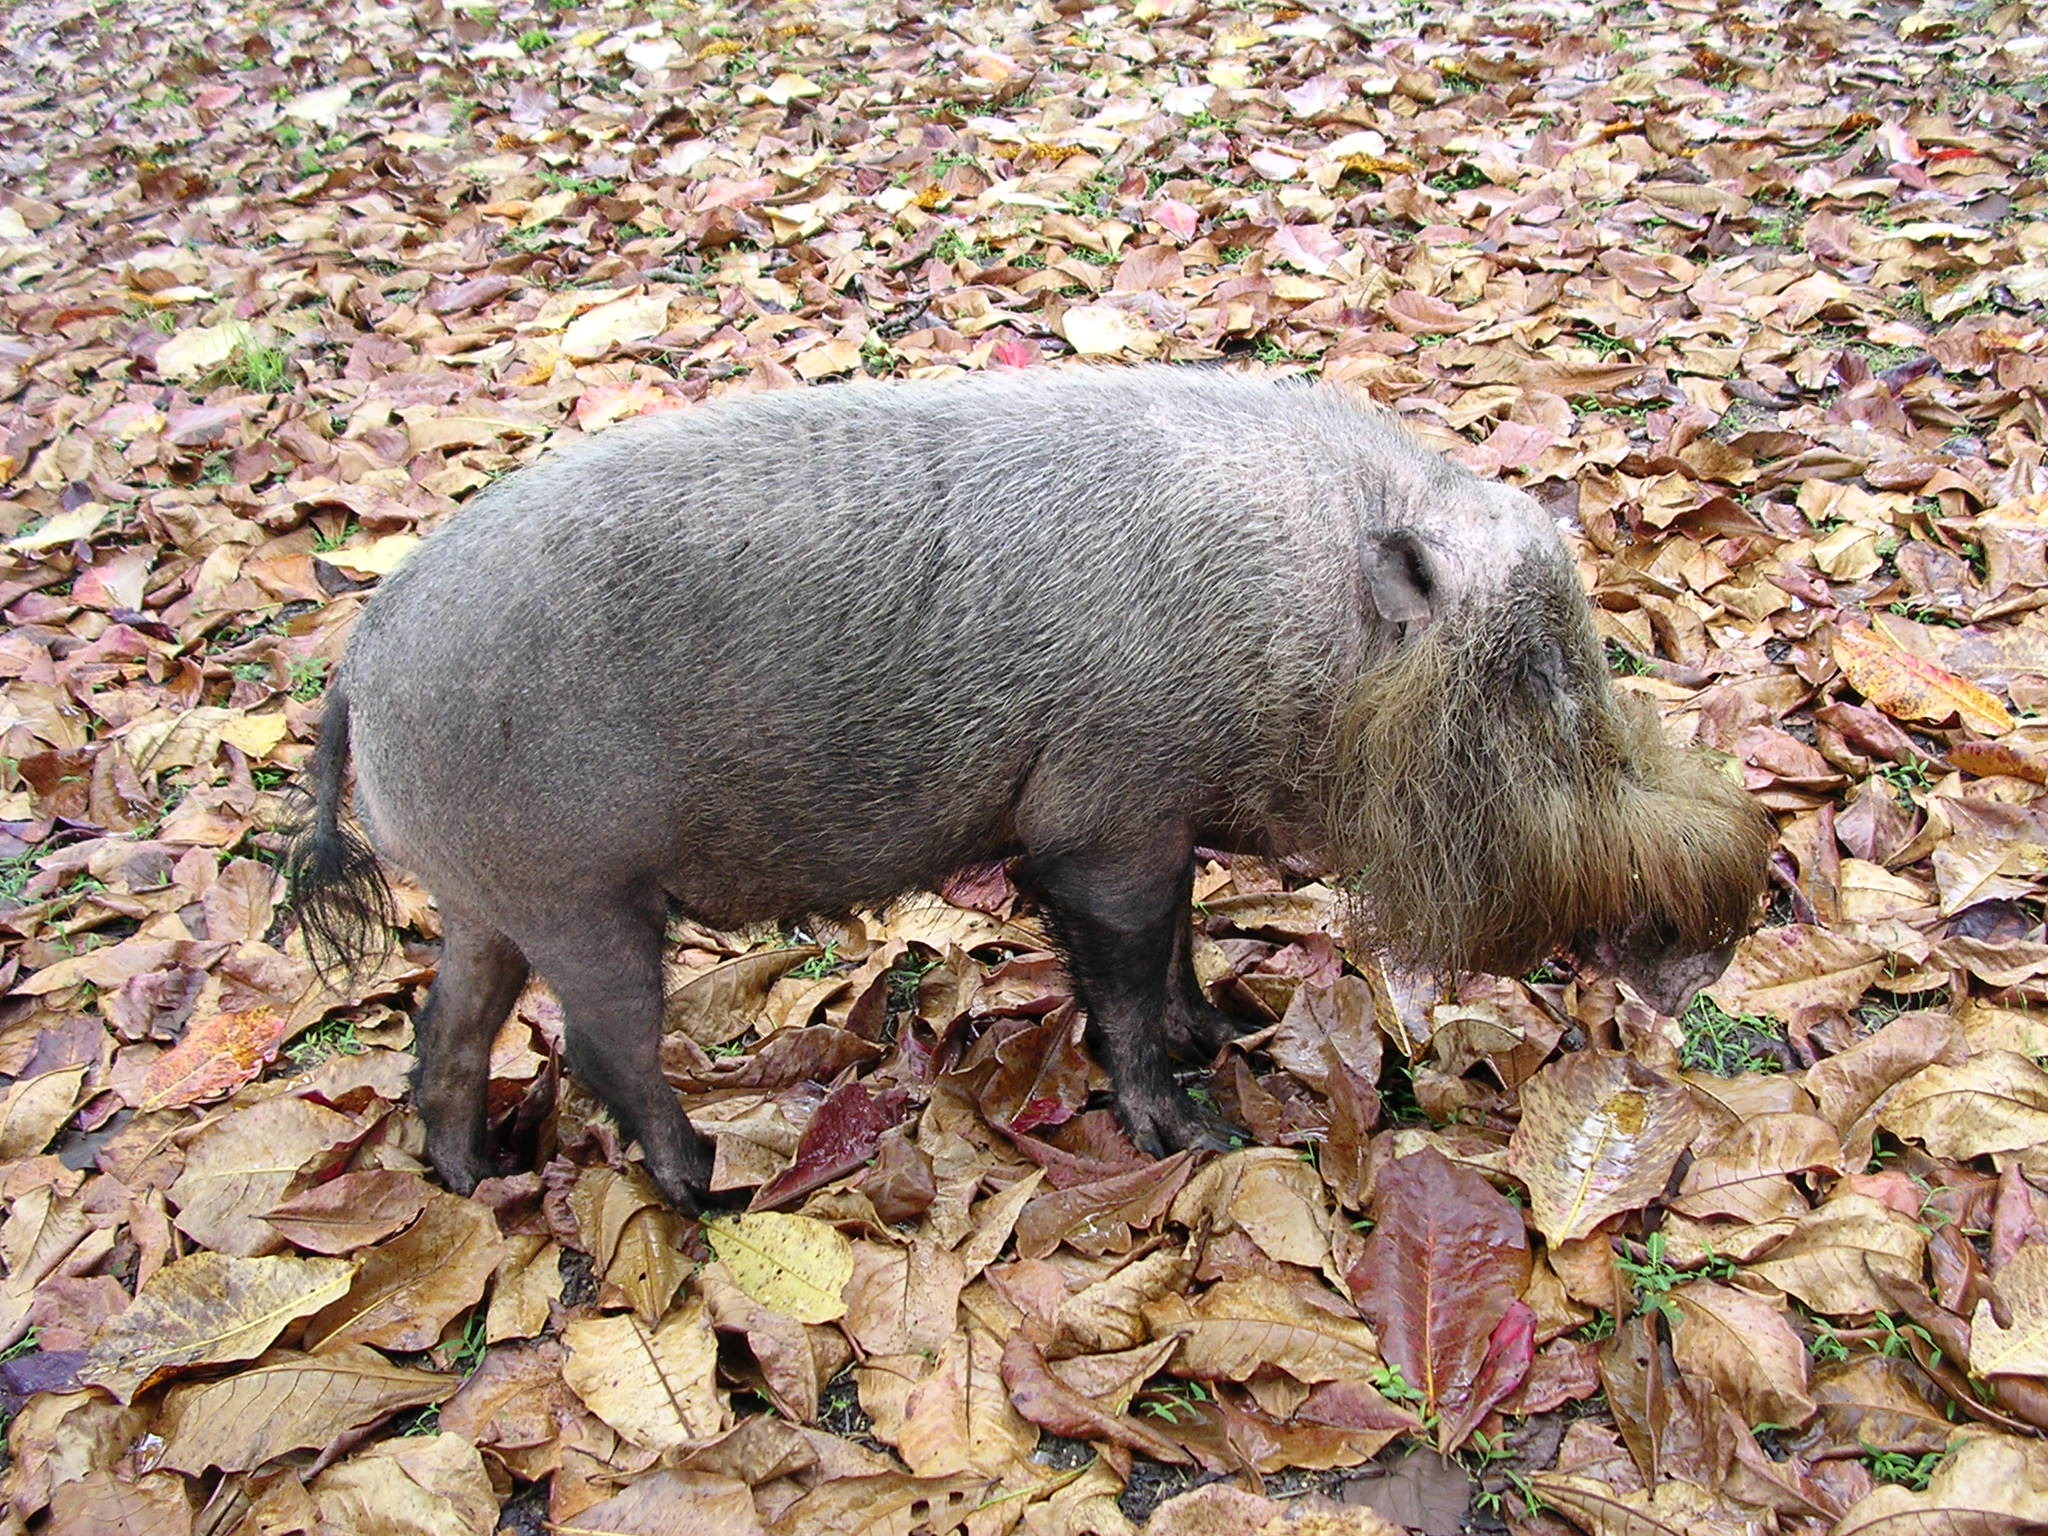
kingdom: Animalia
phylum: Chordata
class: Mammalia
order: Artiodactyla
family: Suidae
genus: Sus
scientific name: Sus barbatus
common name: Bearded pig
